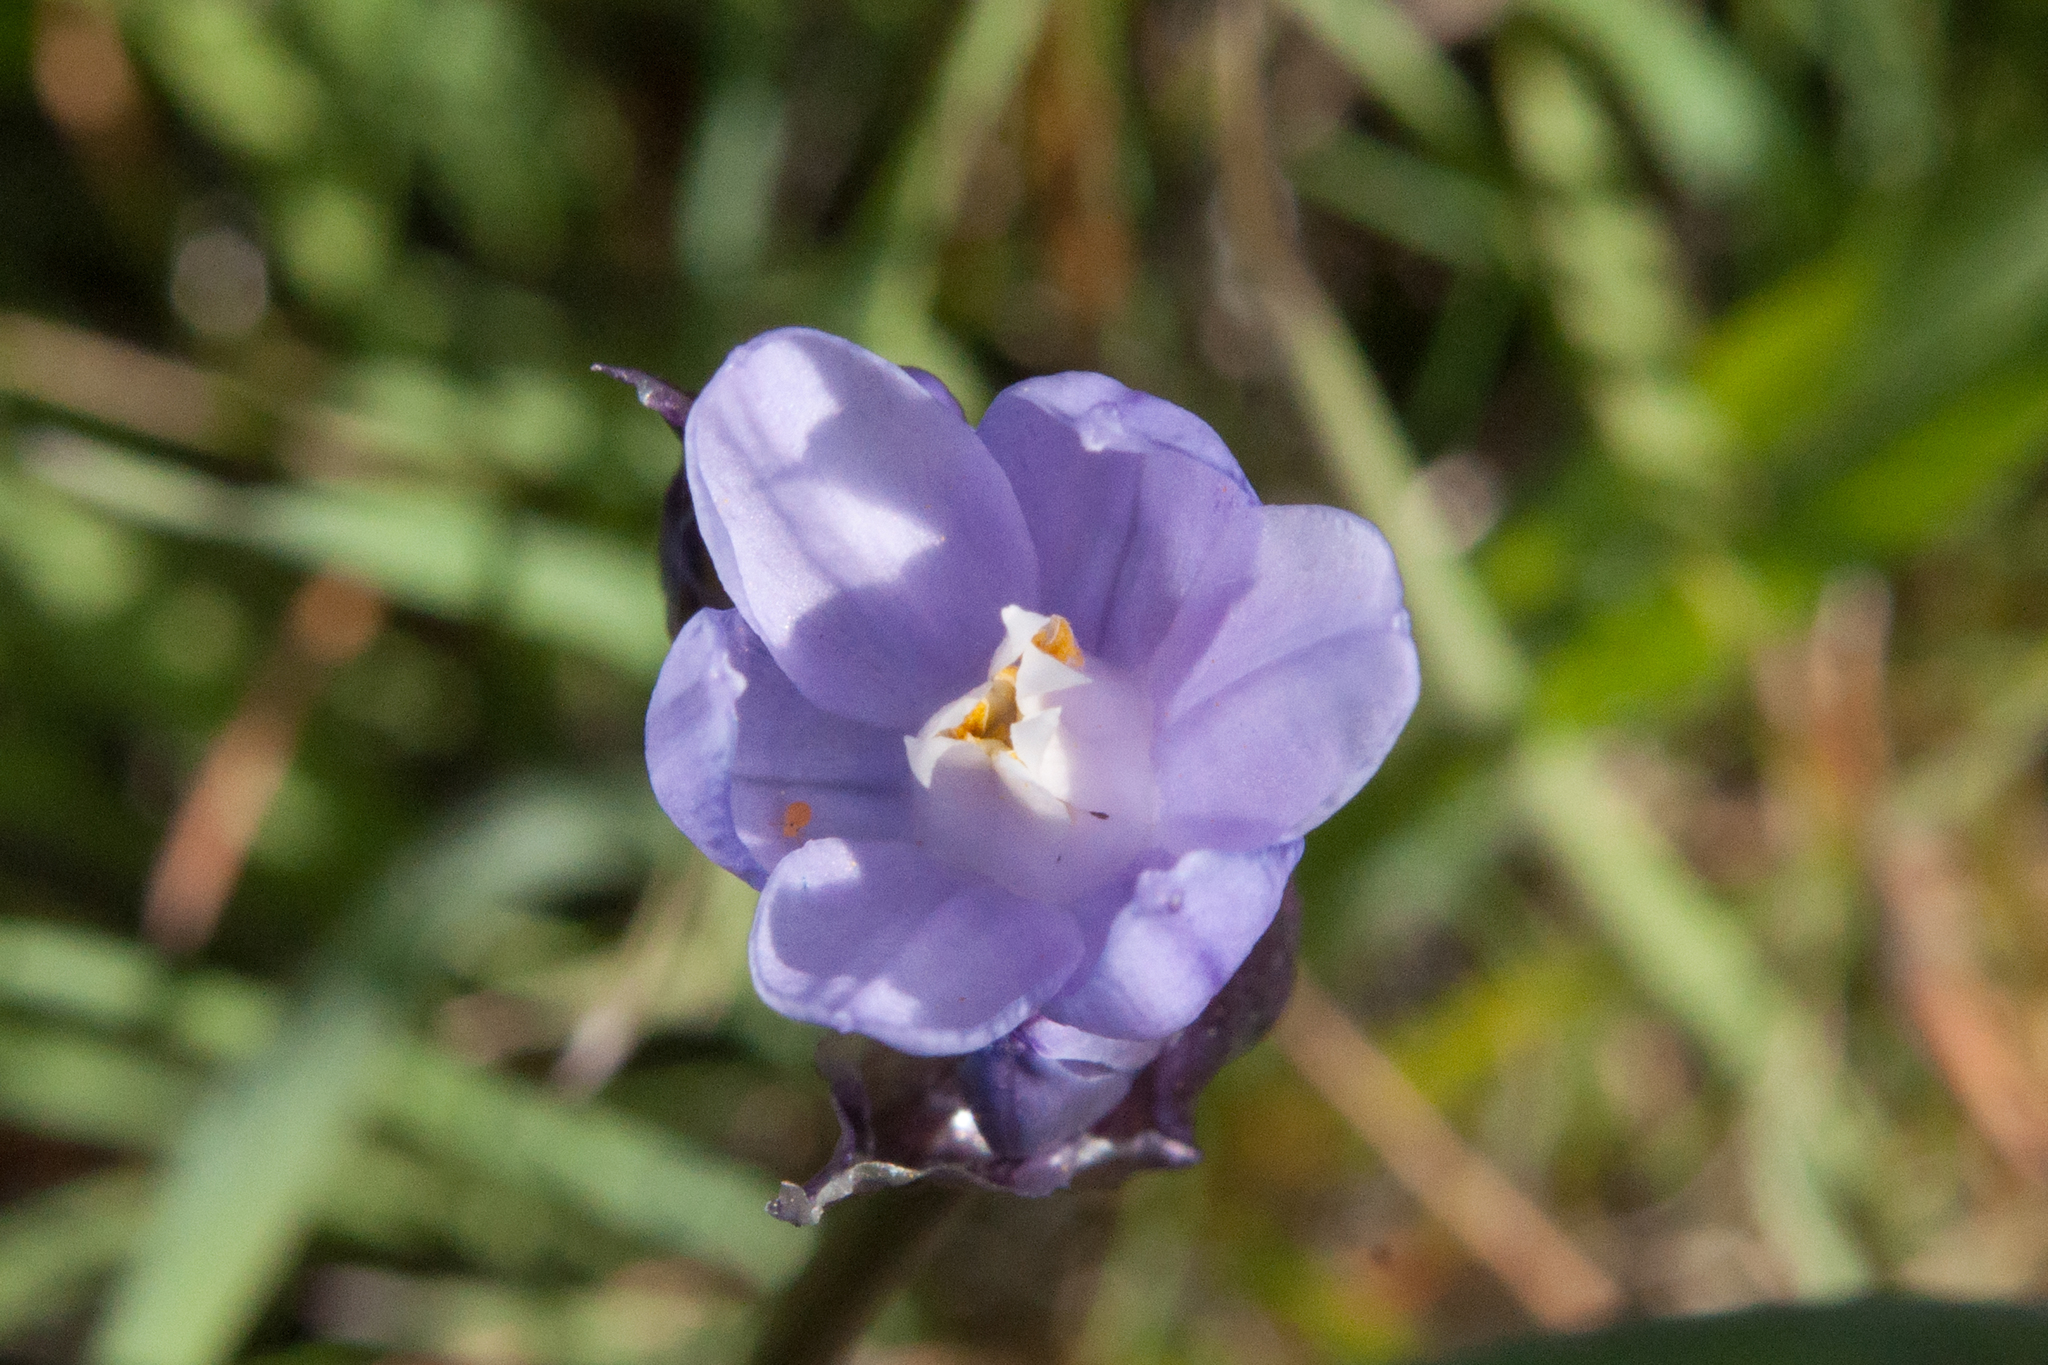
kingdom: Plantae
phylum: Tracheophyta
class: Liliopsida
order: Asparagales
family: Asparagaceae
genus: Dipterostemon
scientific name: Dipterostemon capitatus
